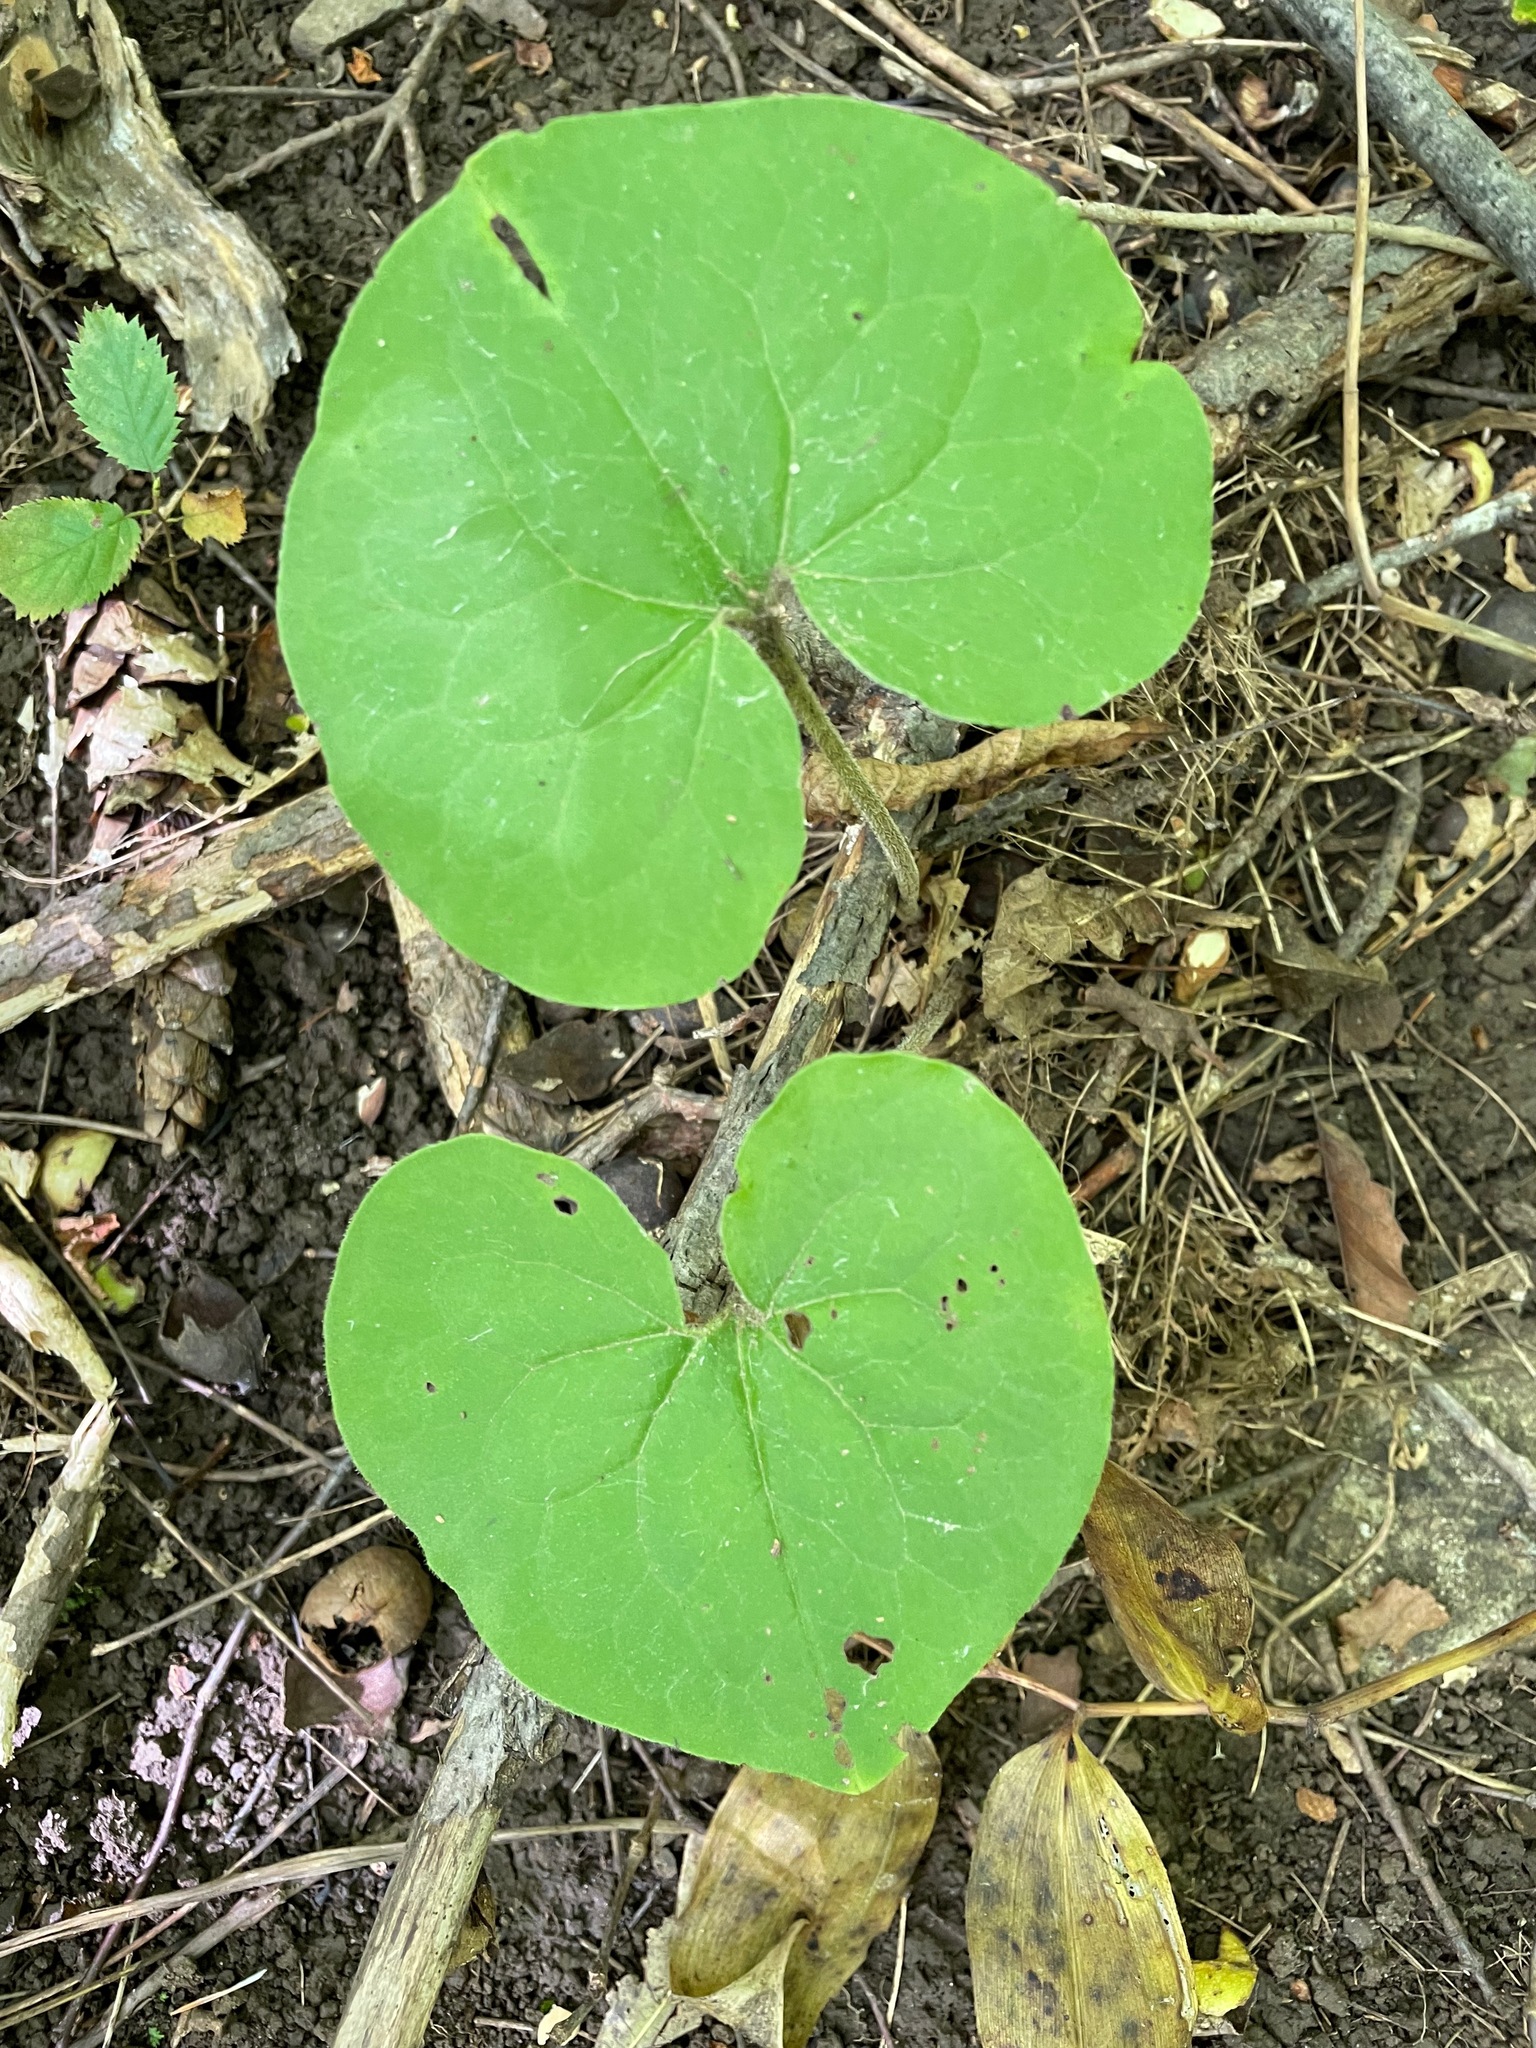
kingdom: Plantae
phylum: Tracheophyta
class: Magnoliopsida
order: Piperales
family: Aristolochiaceae
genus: Asarum
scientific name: Asarum canadense
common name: Wild ginger
